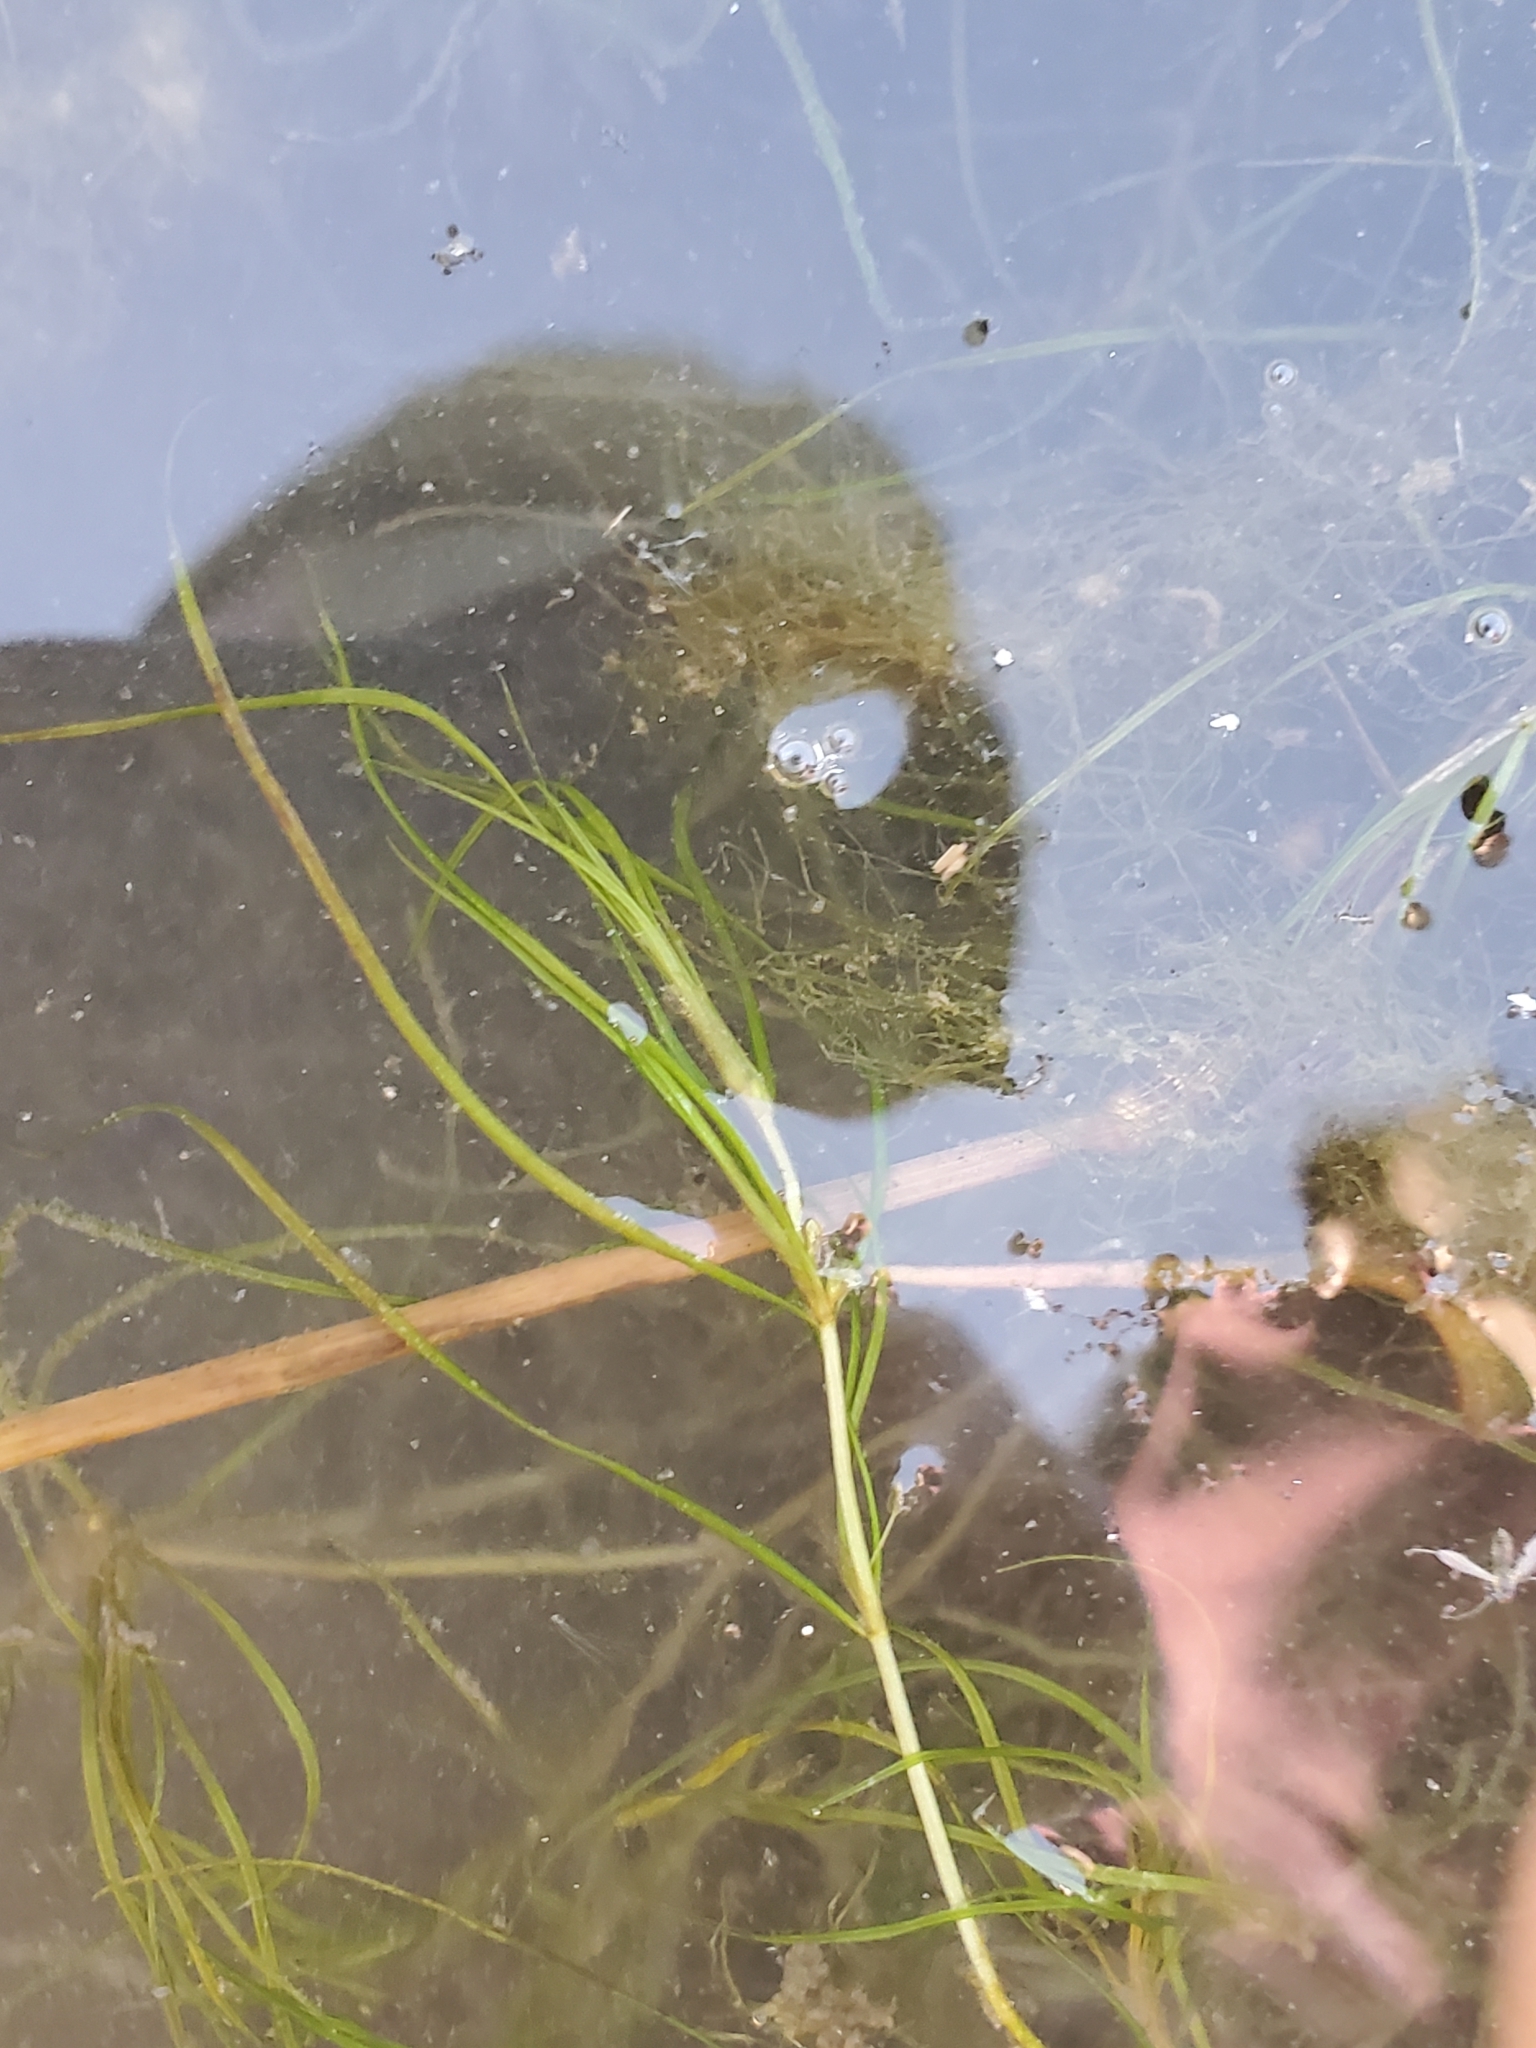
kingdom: Plantae
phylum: Tracheophyta
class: Liliopsida
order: Alismatales
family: Potamogetonaceae
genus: Zannichellia
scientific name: Zannichellia palustris
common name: Horned pondweed
